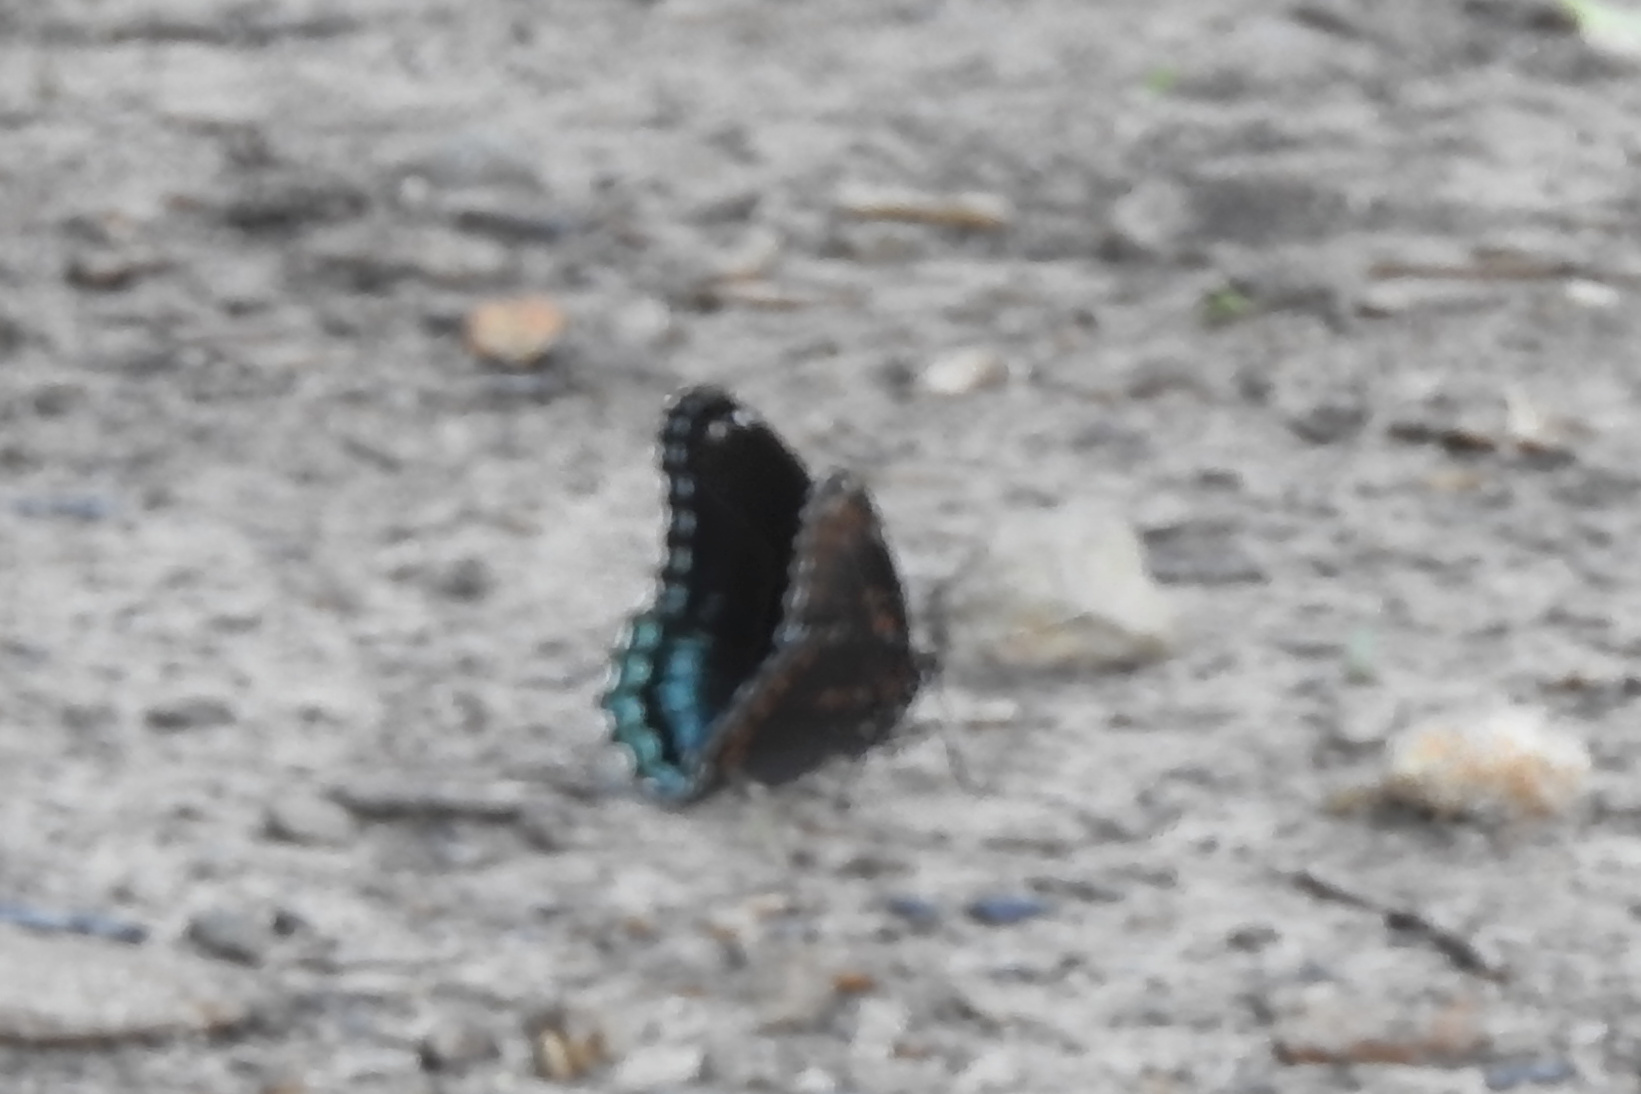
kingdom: Animalia
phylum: Arthropoda
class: Insecta
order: Lepidoptera
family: Nymphalidae
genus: Limenitis
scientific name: Limenitis astyanax
